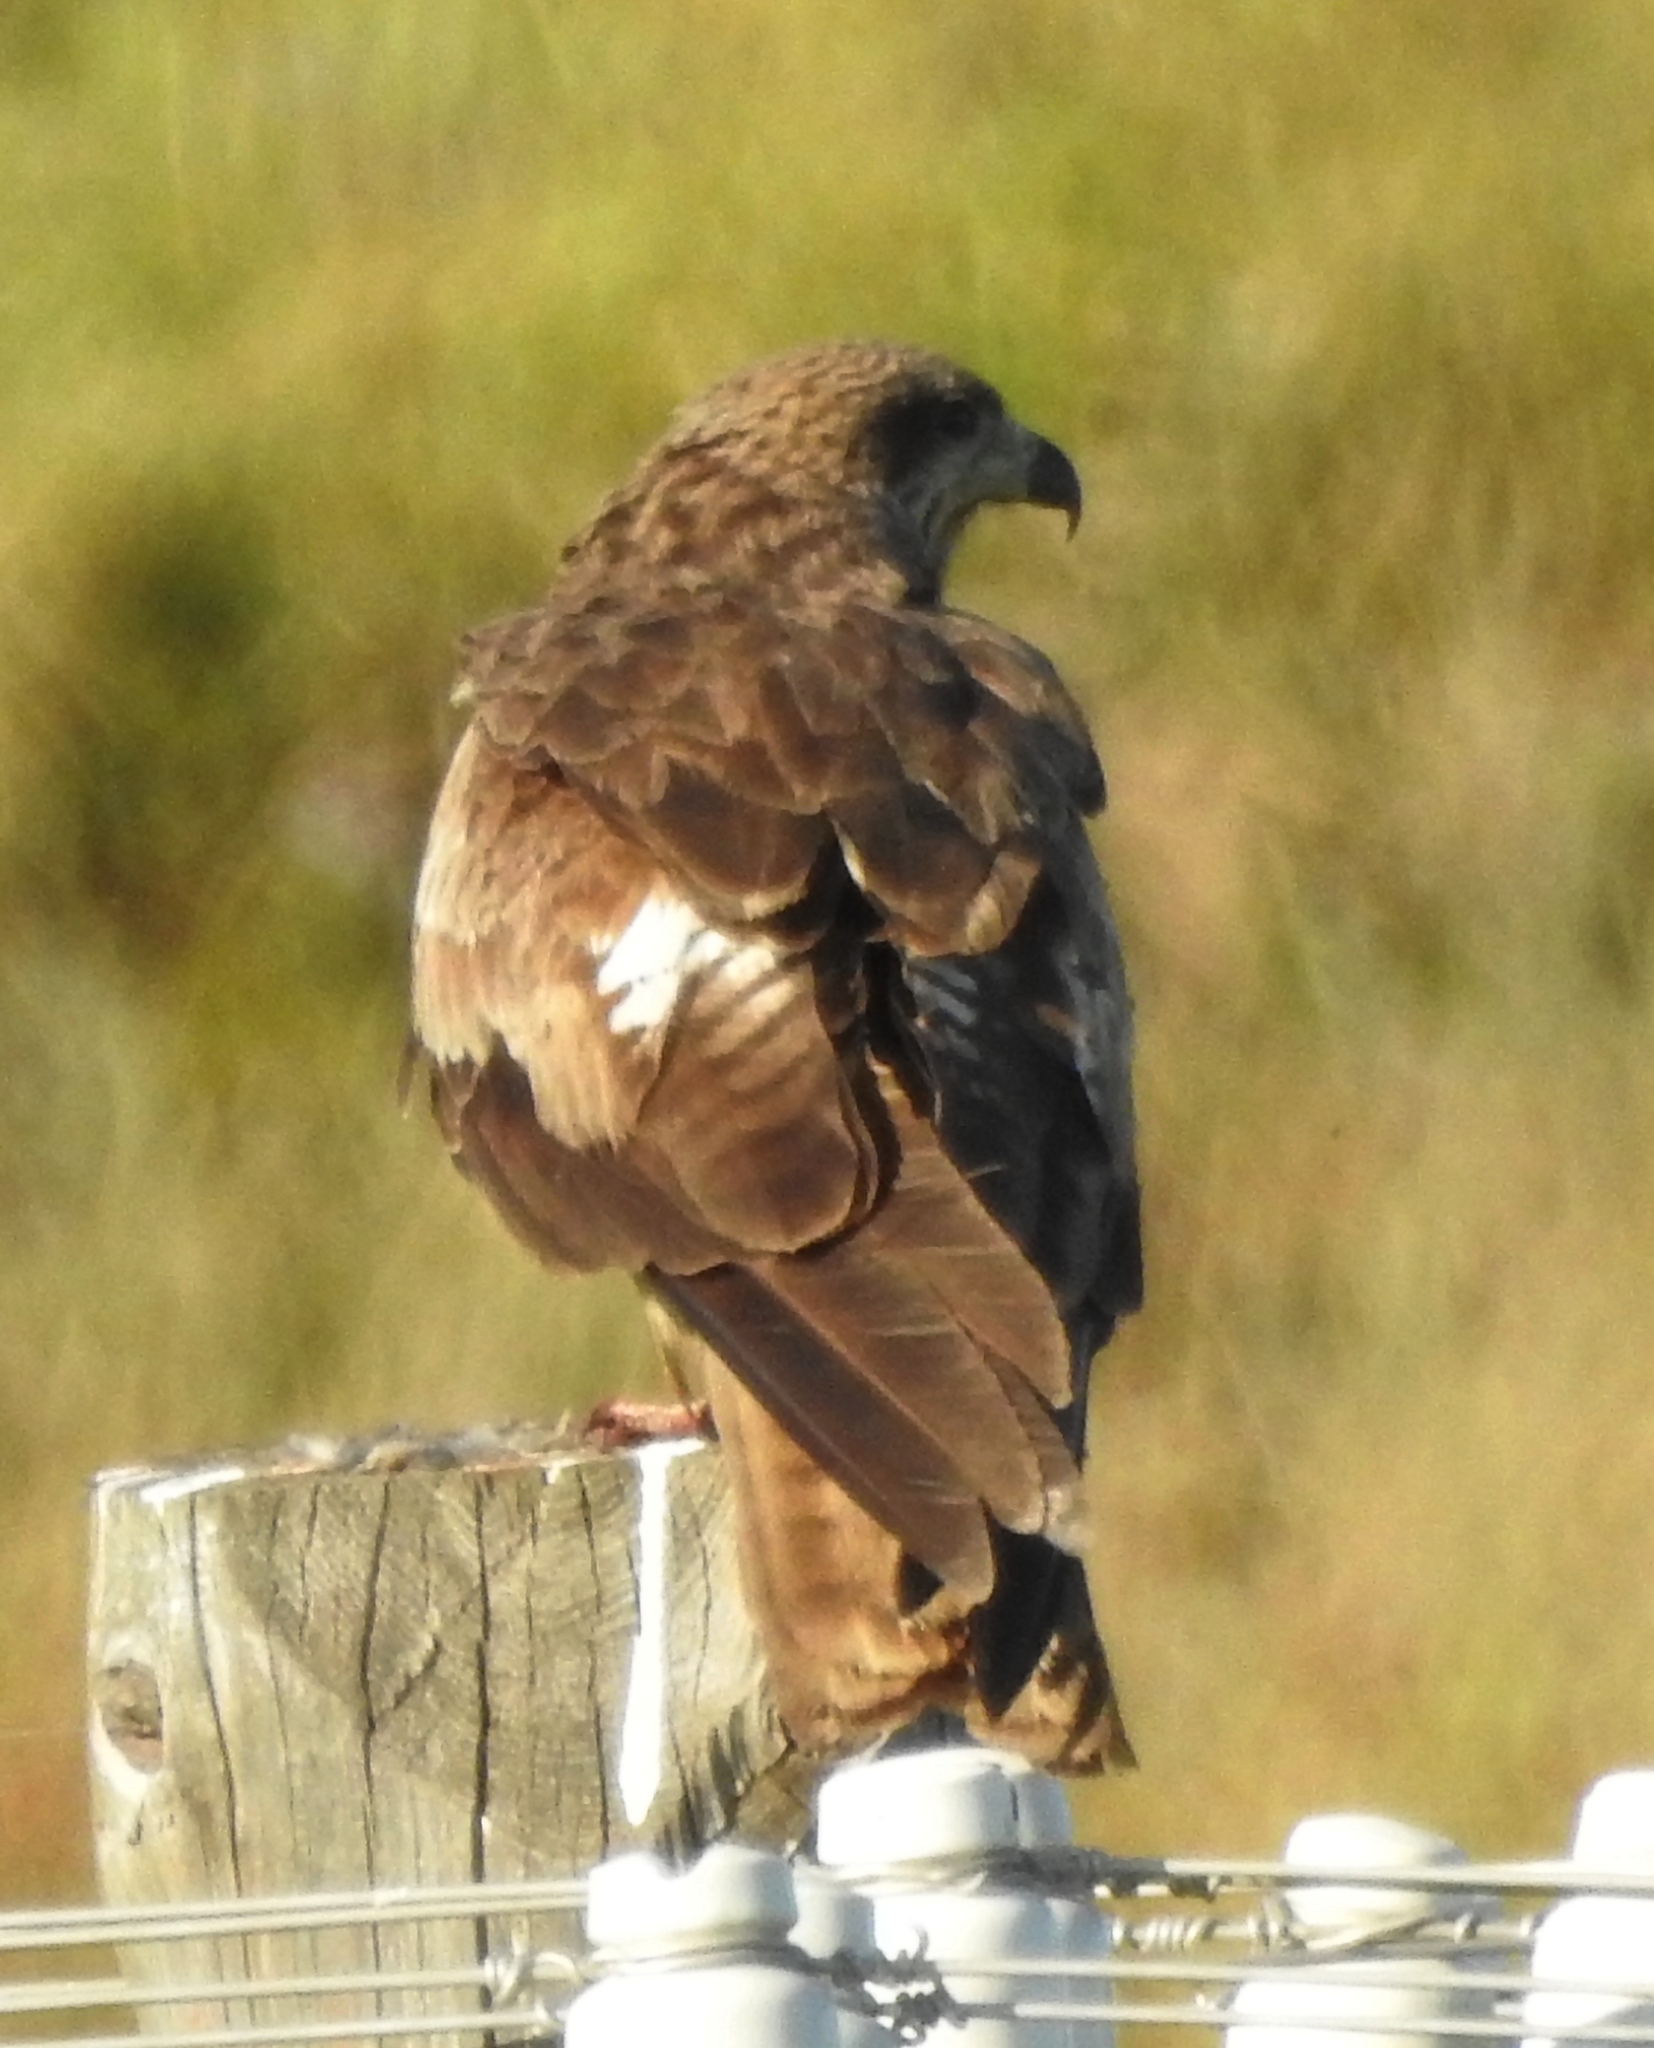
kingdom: Animalia
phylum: Chordata
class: Aves
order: Accipitriformes
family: Accipitridae
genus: Milvus
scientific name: Milvus migrans
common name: Black kite
